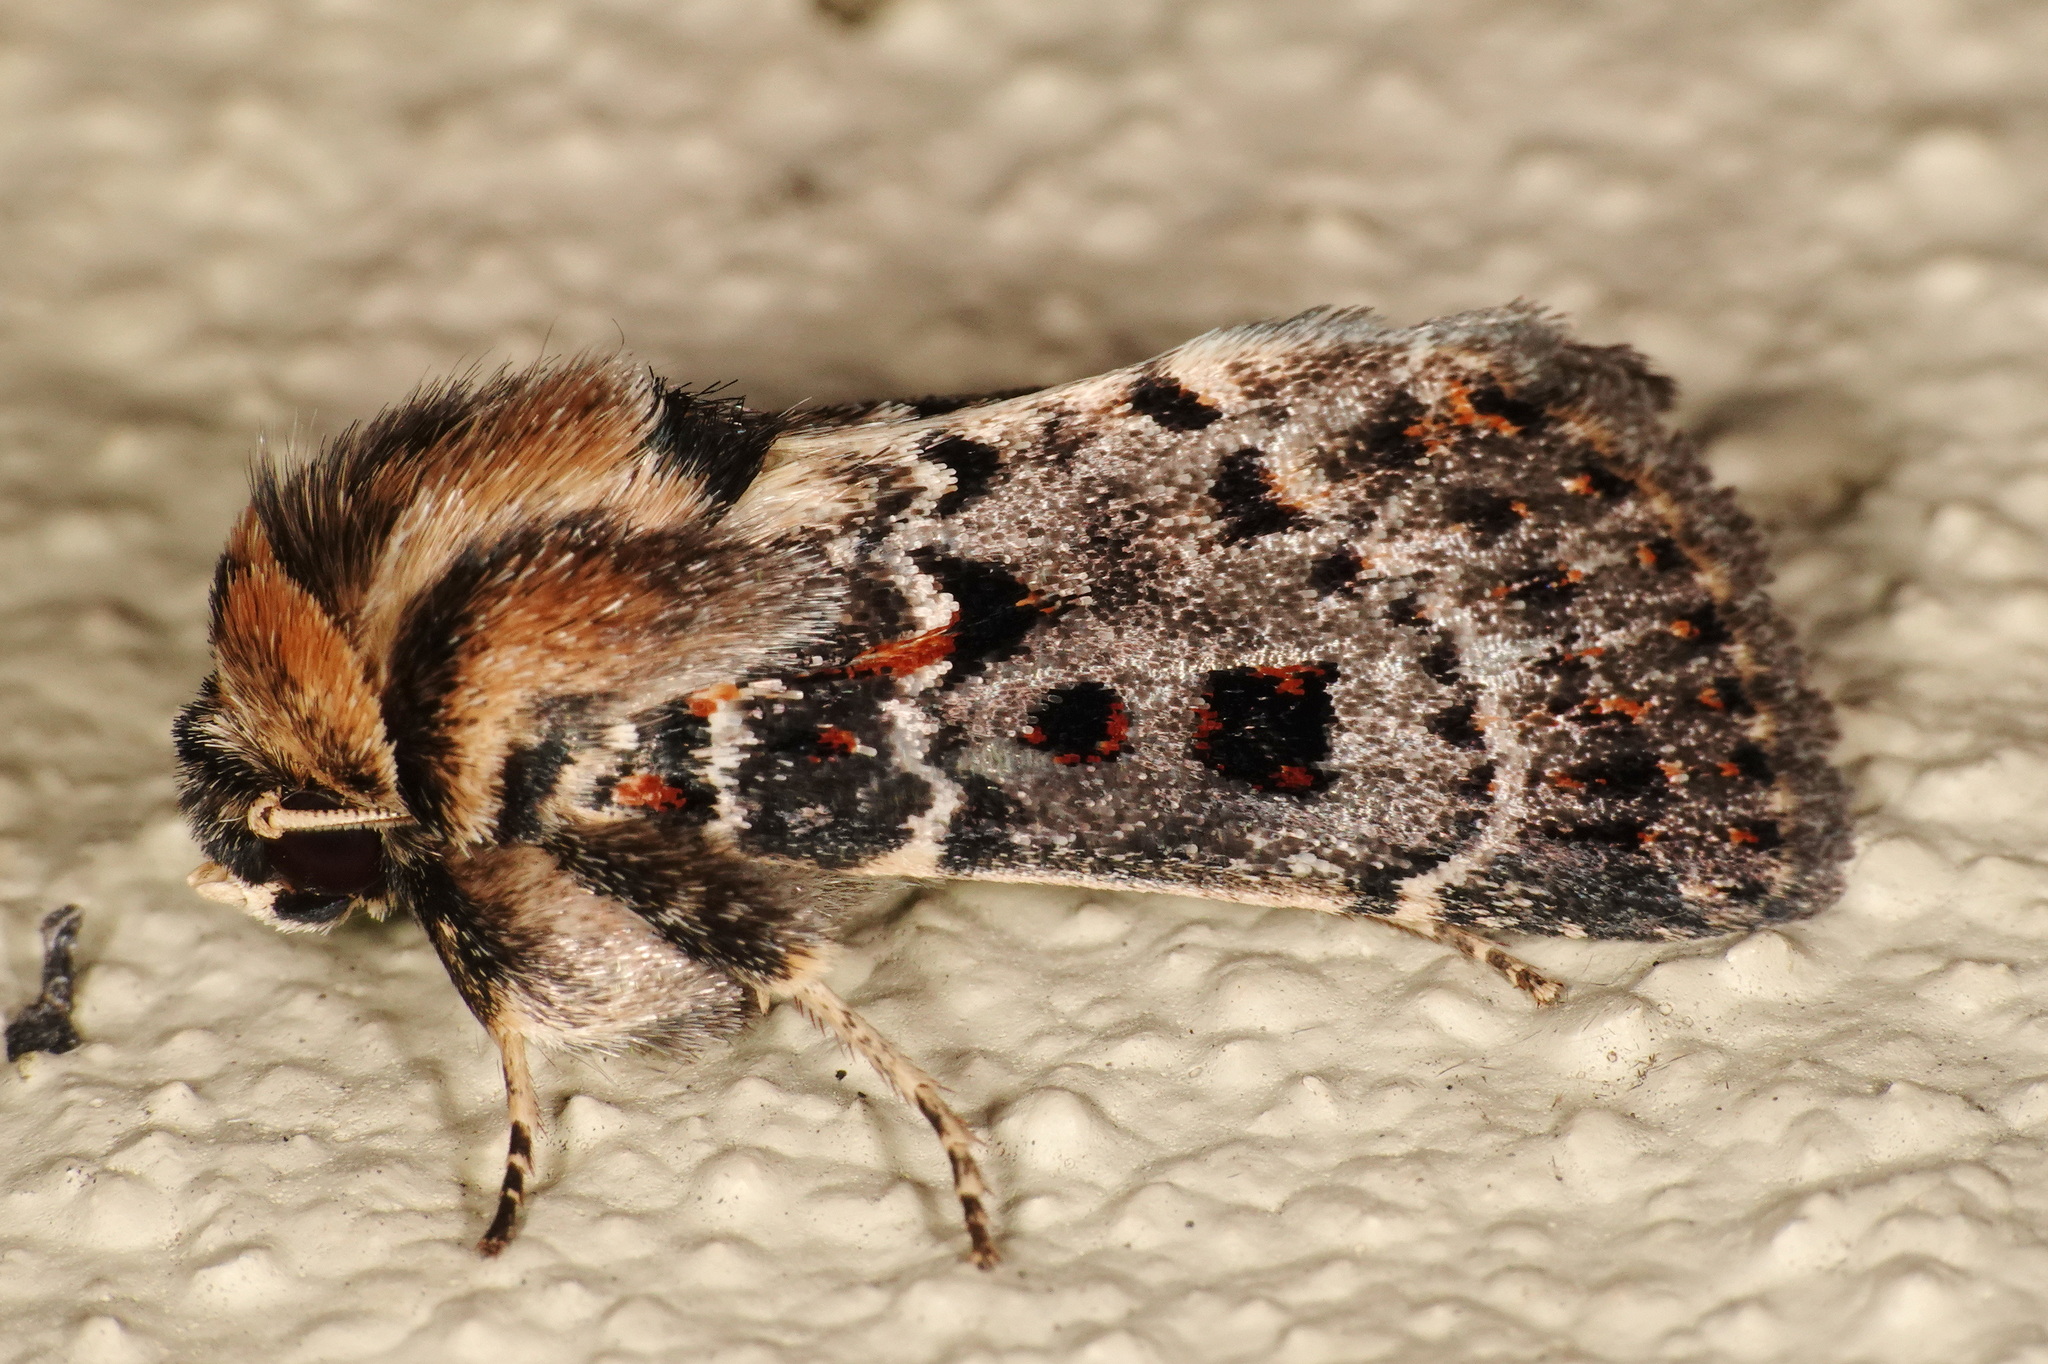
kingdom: Animalia
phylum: Arthropoda
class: Insecta
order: Lepidoptera
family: Noctuidae
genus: Proteuxoa
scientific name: Proteuxoa sanguinipuncta
